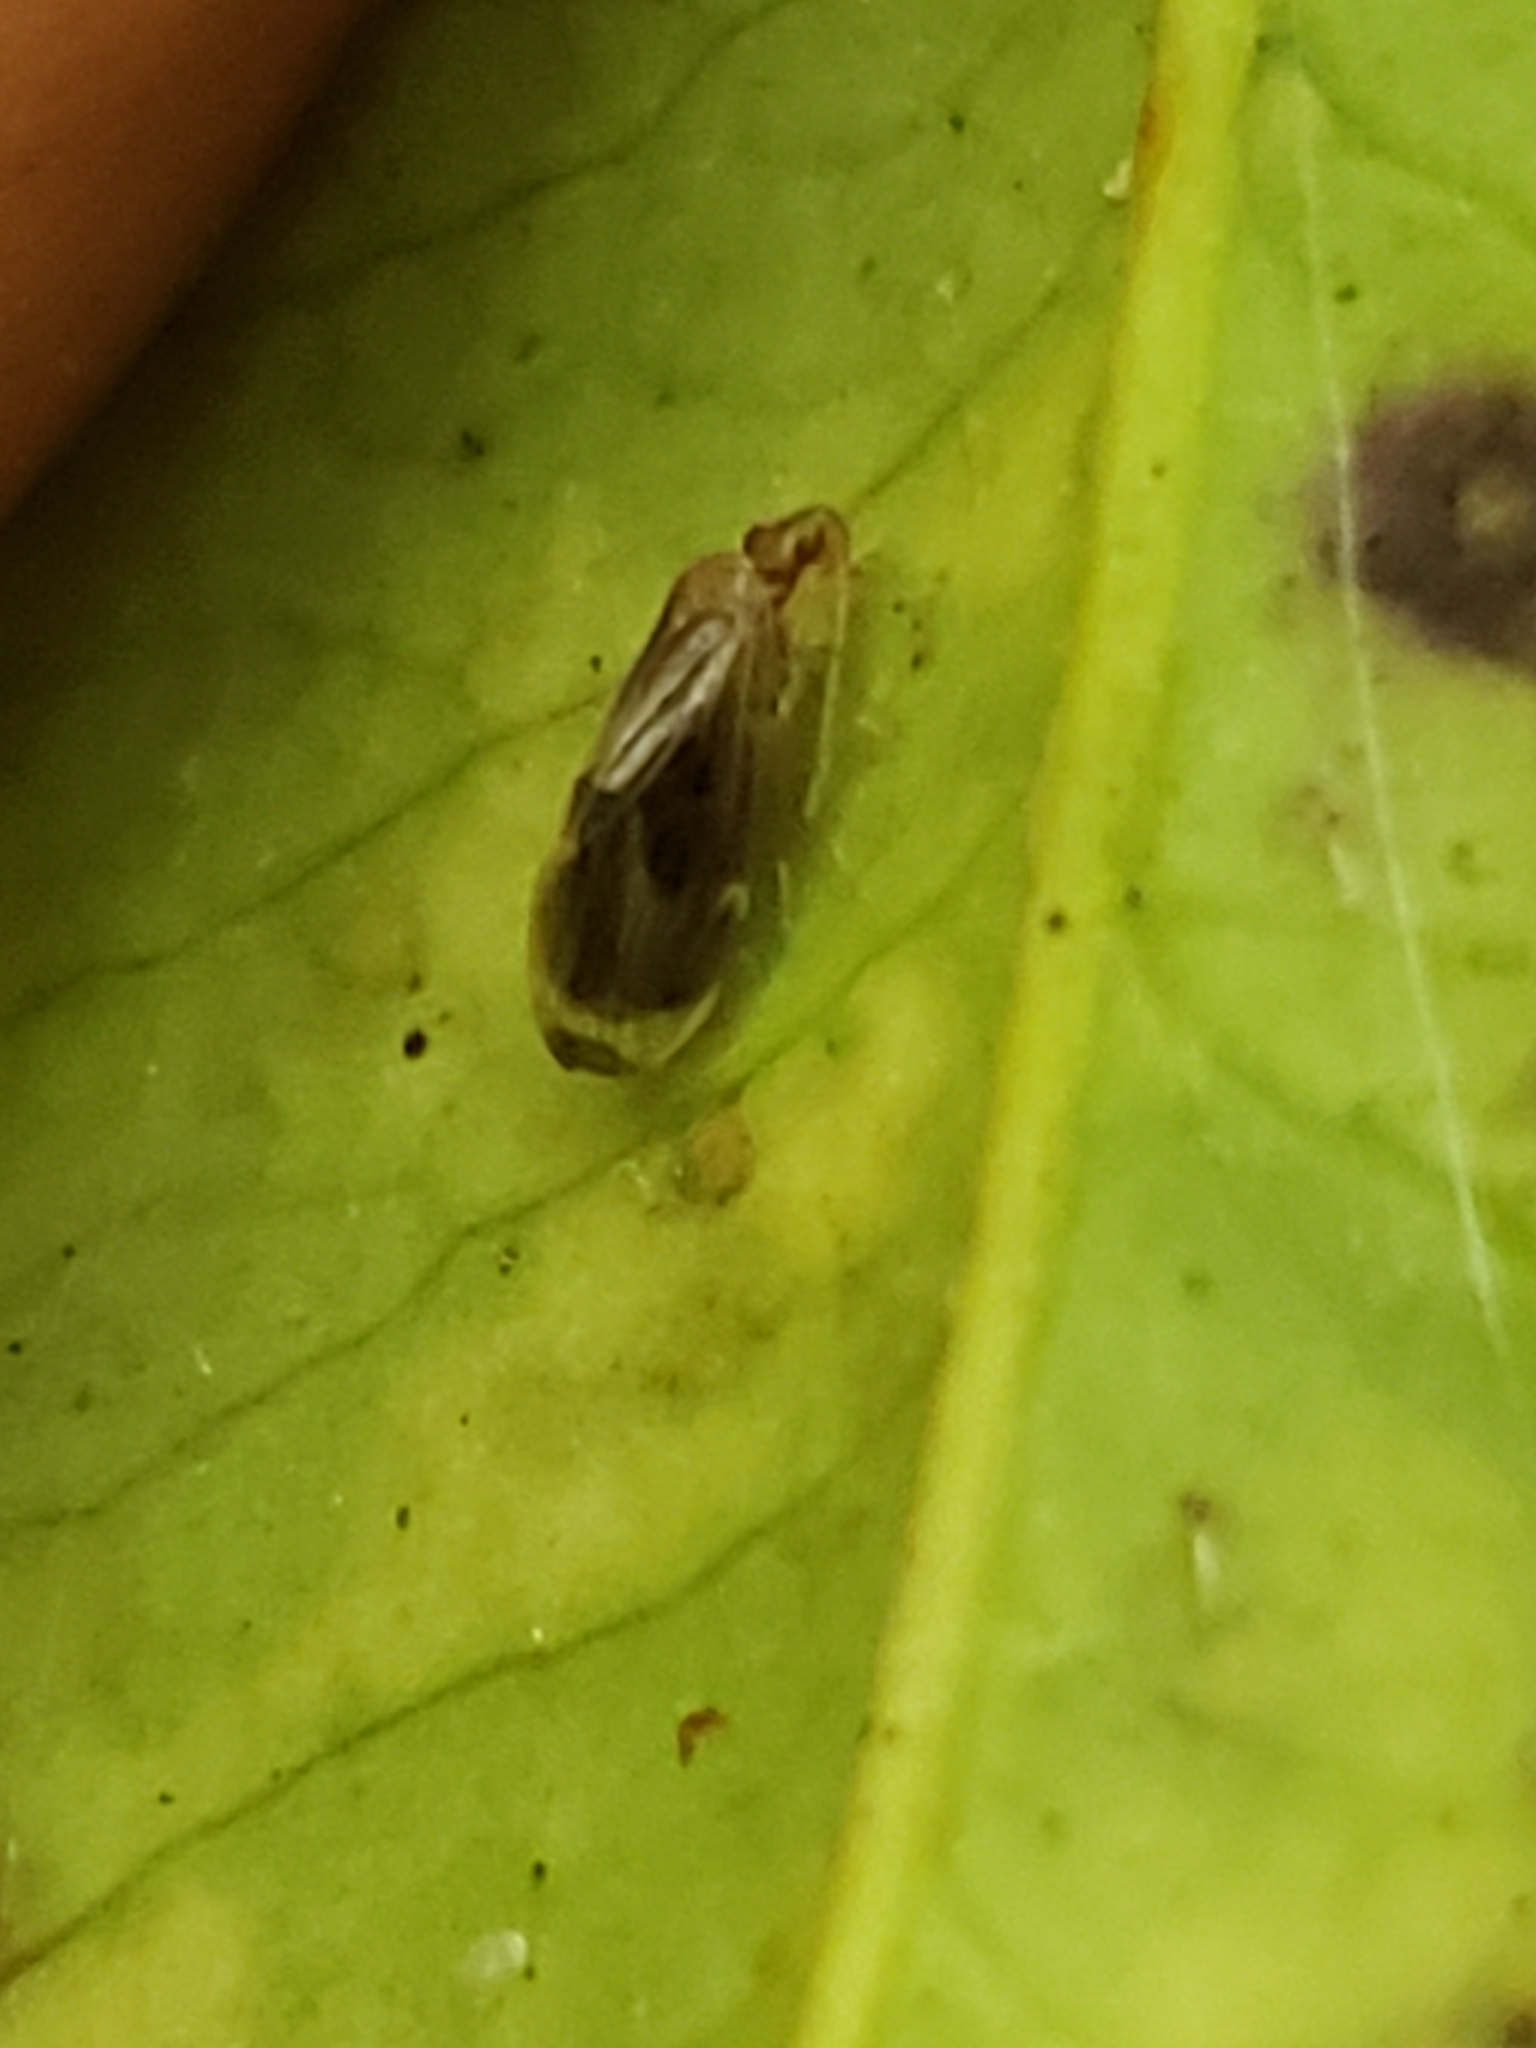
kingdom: Animalia
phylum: Arthropoda
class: Insecta
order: Psocodea
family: Amphipsocidae
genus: Polypsocus
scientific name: Polypsocus corruptus
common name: Corrupt barklouse
